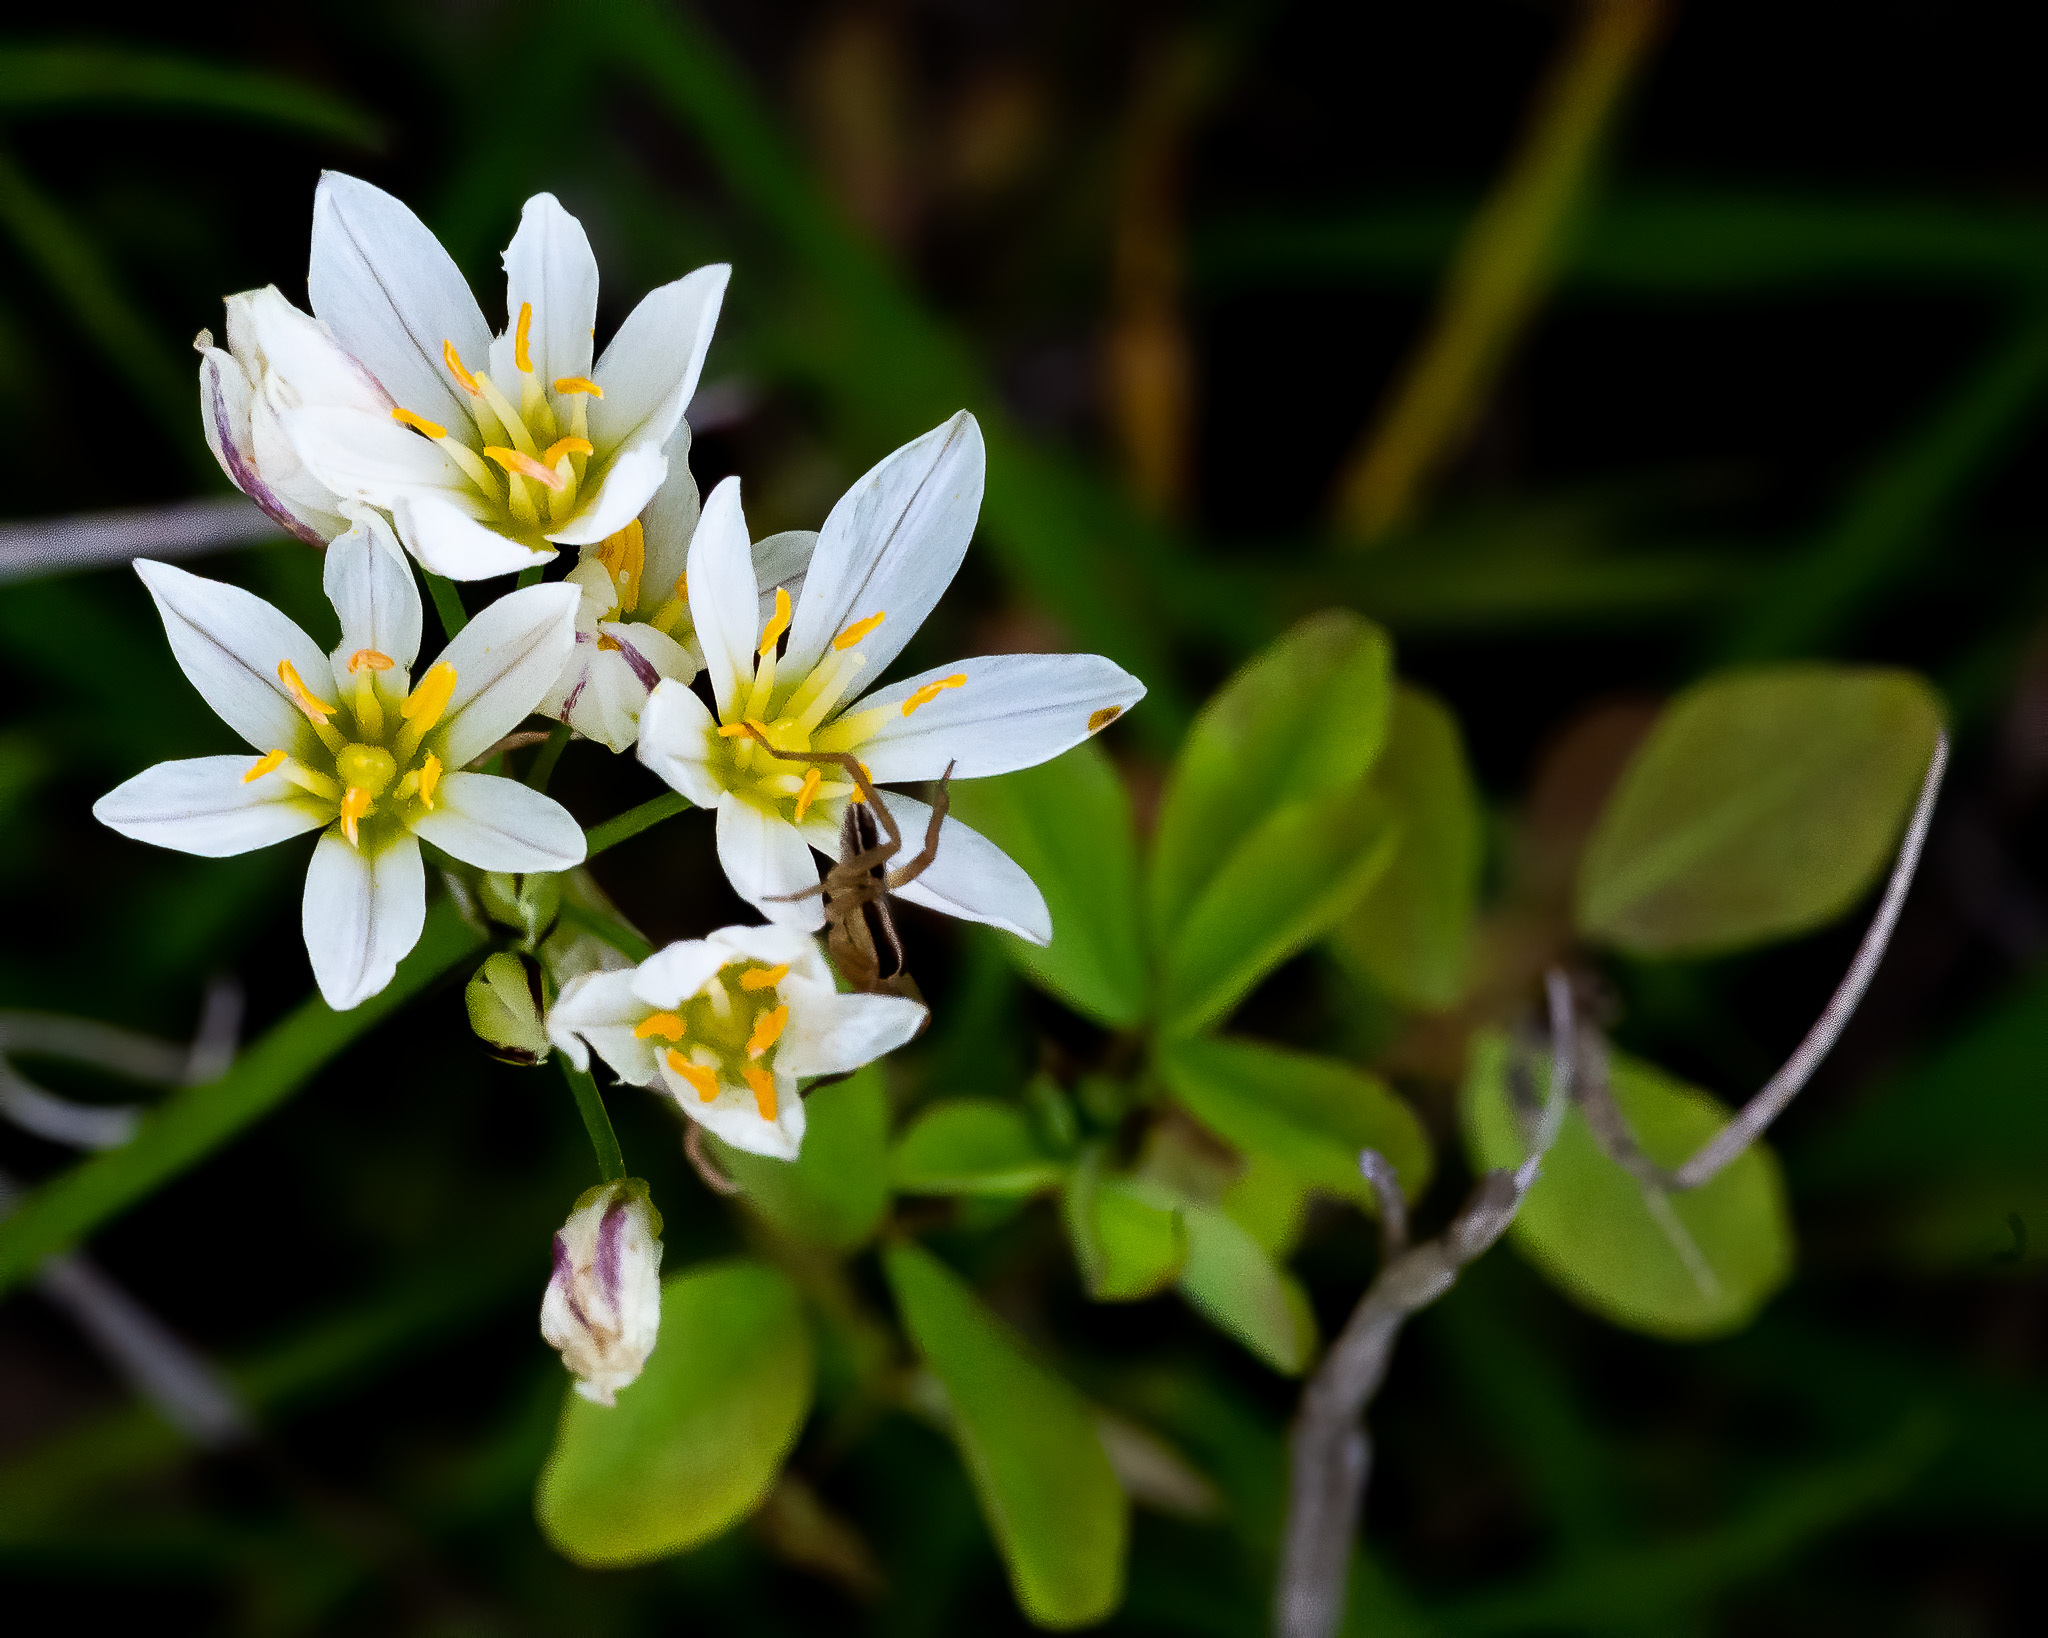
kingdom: Plantae
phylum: Tracheophyta
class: Liliopsida
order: Asparagales
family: Amaryllidaceae
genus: Nothoscordum
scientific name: Nothoscordum bivalve
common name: Crow-poison
